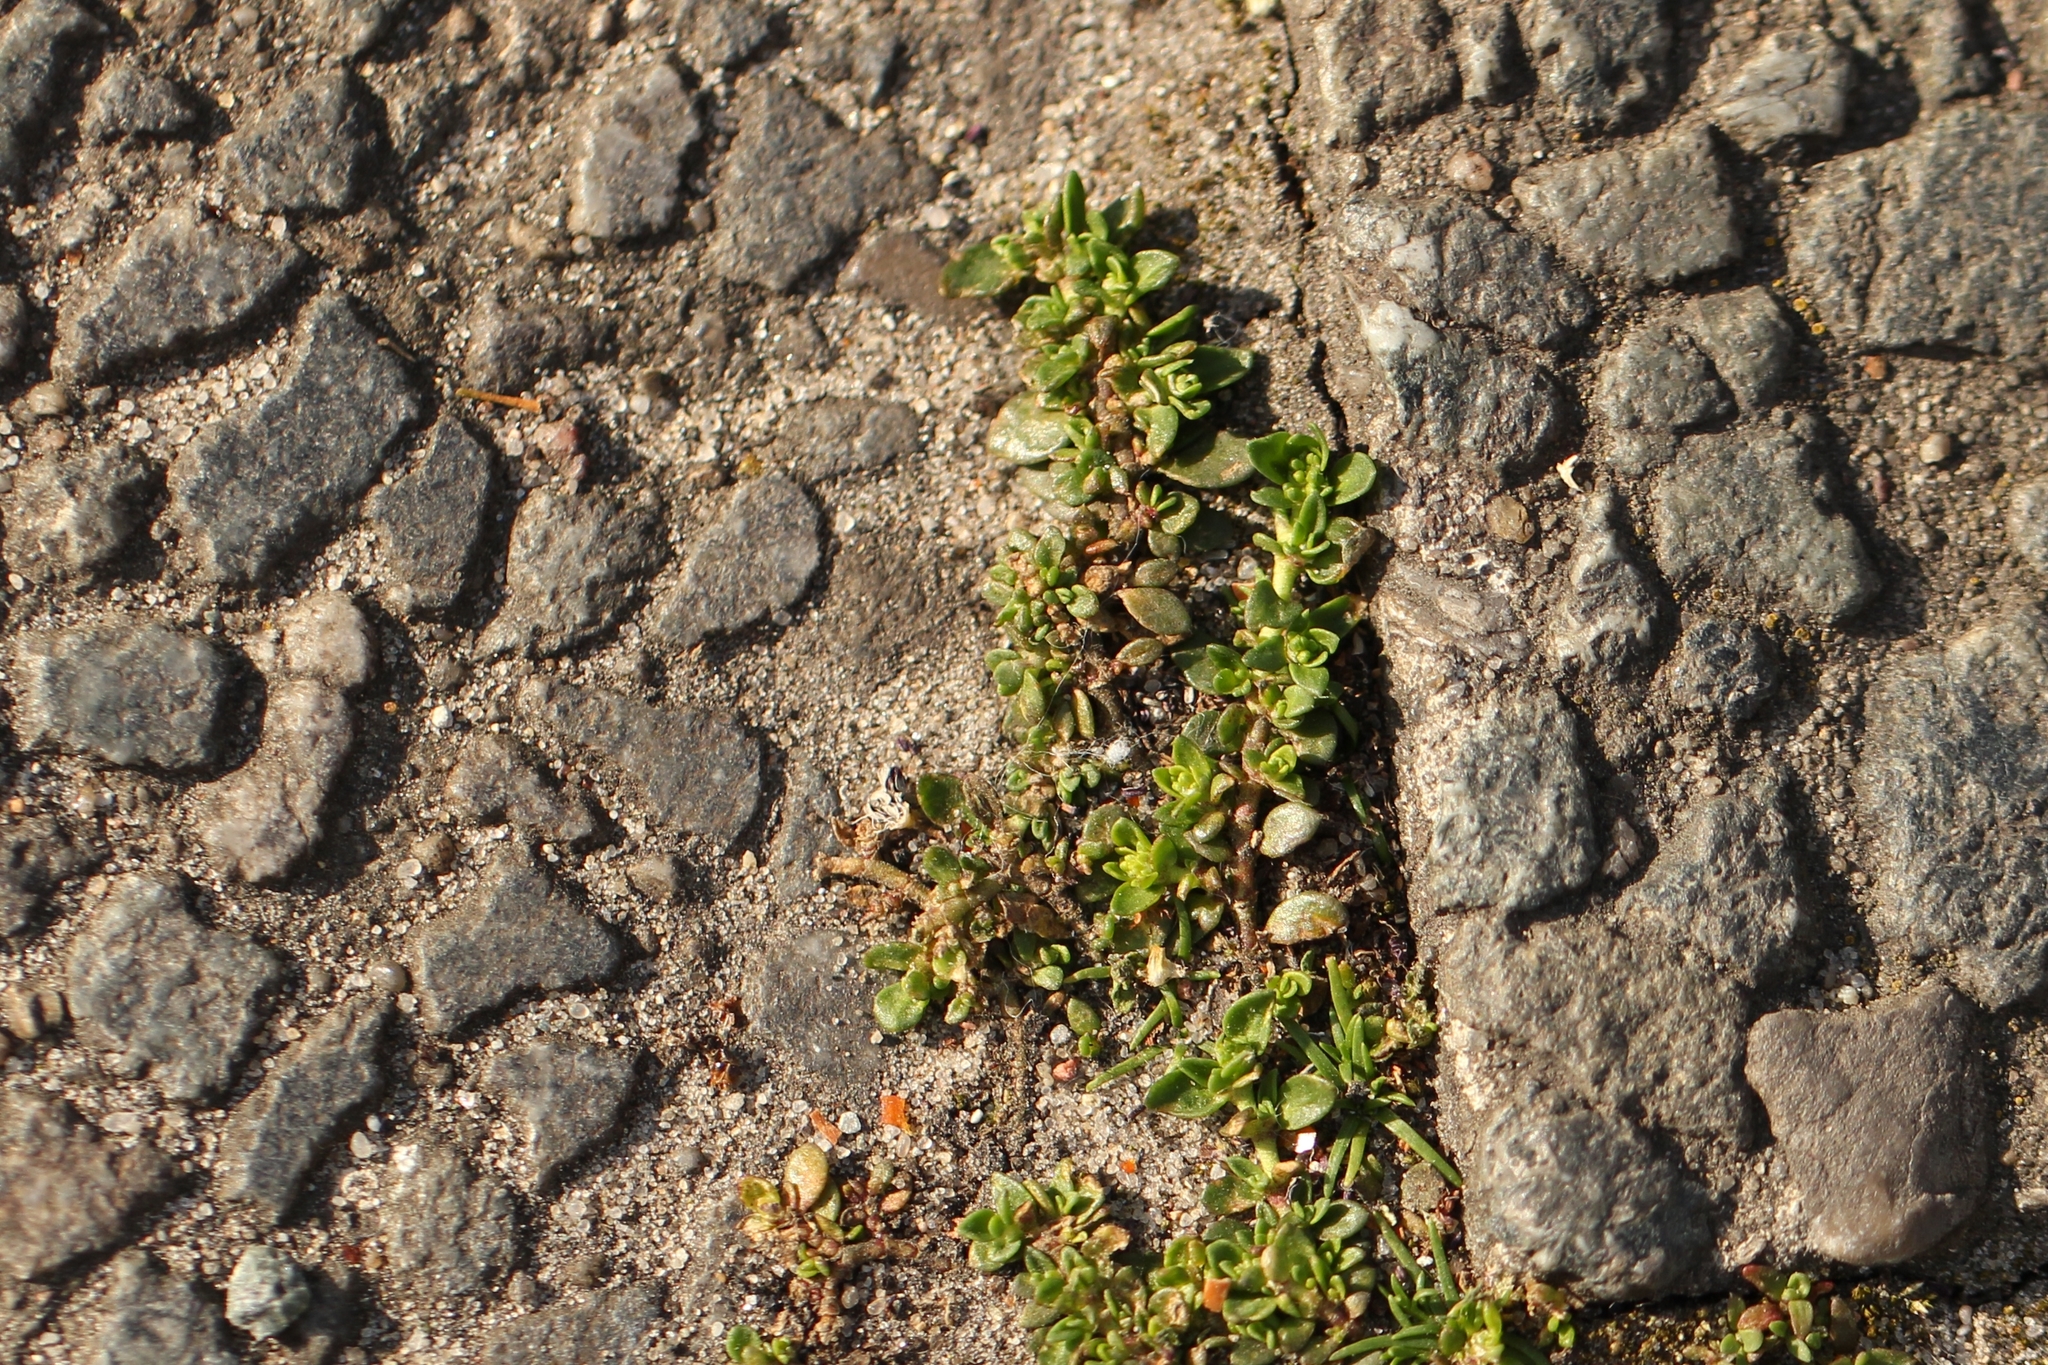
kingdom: Plantae
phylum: Tracheophyta
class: Magnoliopsida
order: Caryophyllales
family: Caryophyllaceae
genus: Herniaria
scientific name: Herniaria glabra
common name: Smooth rupturewort
